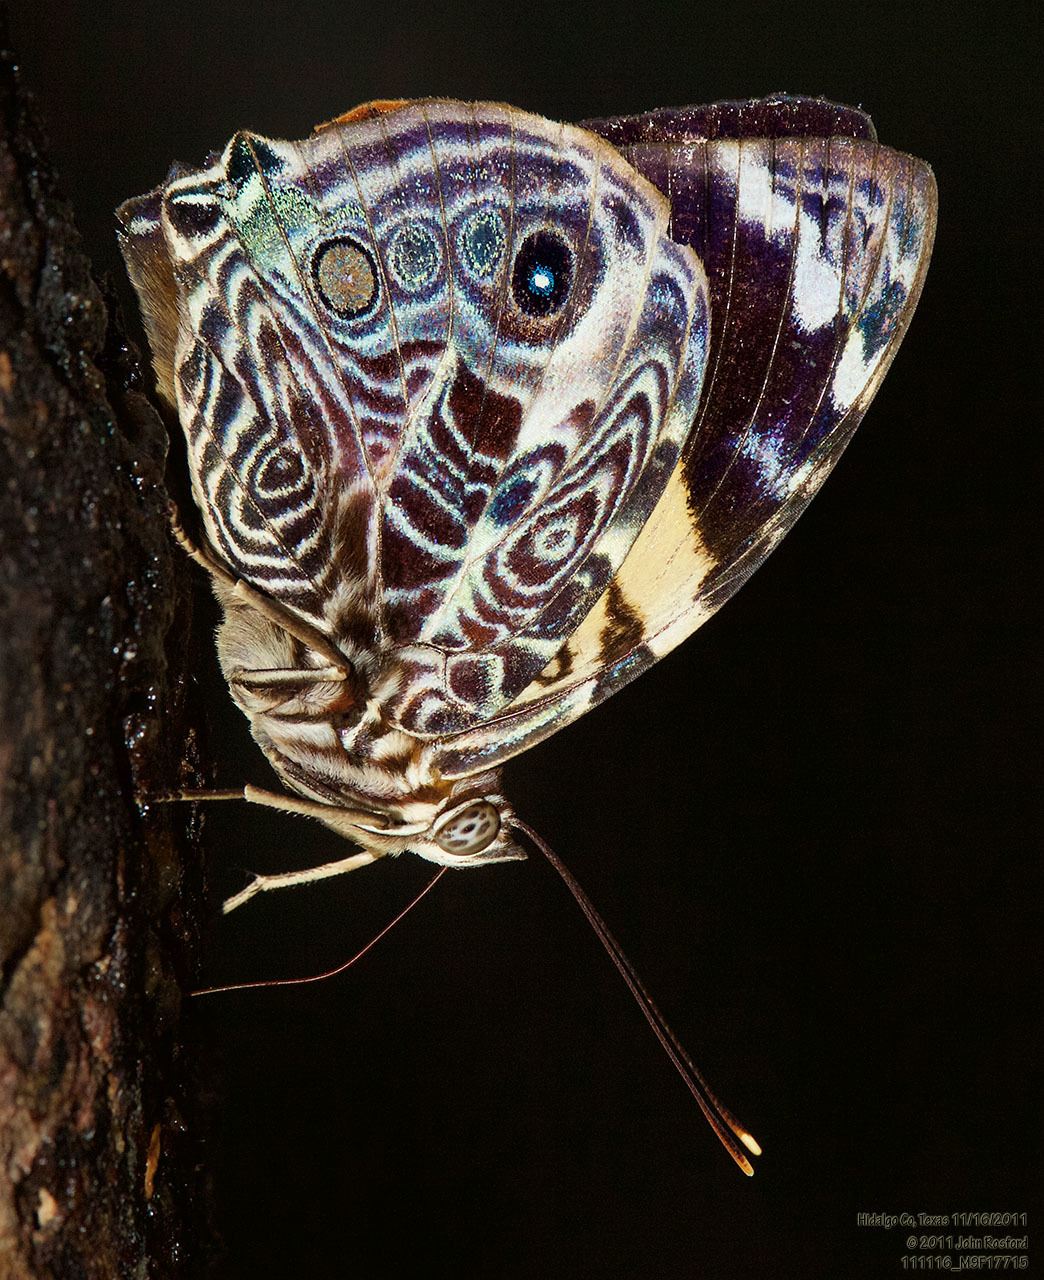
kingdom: Animalia
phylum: Arthropoda
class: Insecta
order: Lepidoptera
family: Nymphalidae
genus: Smyrna
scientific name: Smyrna blomfildia
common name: Blomfild's beauty
